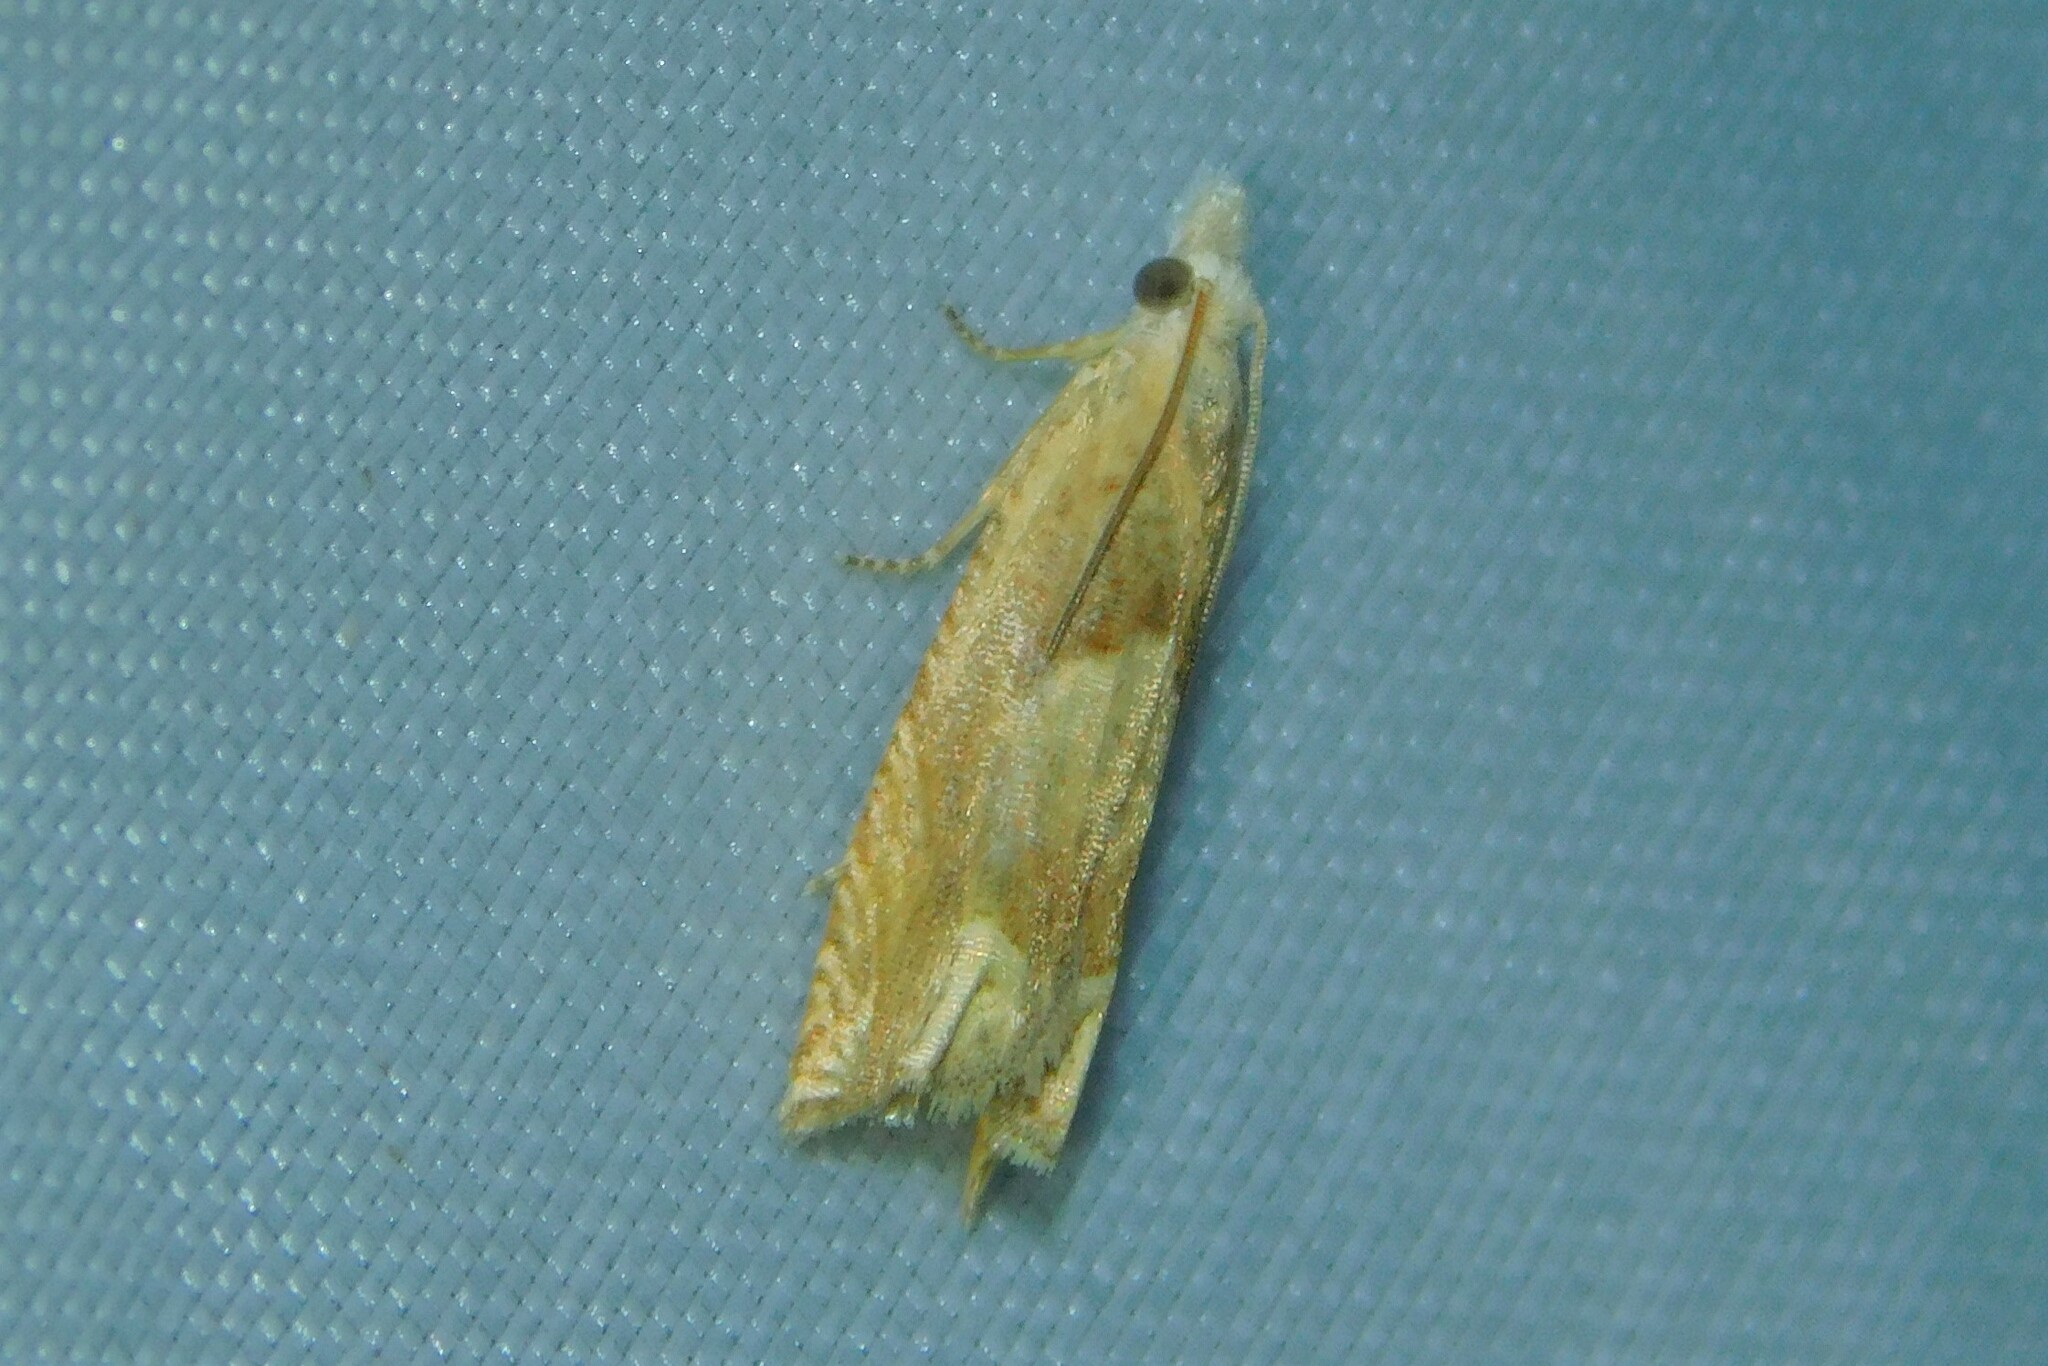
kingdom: Animalia
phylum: Arthropoda
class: Insecta
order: Lepidoptera
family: Tortricidae
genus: Eucosma
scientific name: Eucosma conterminana
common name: Pale lettuce bell
